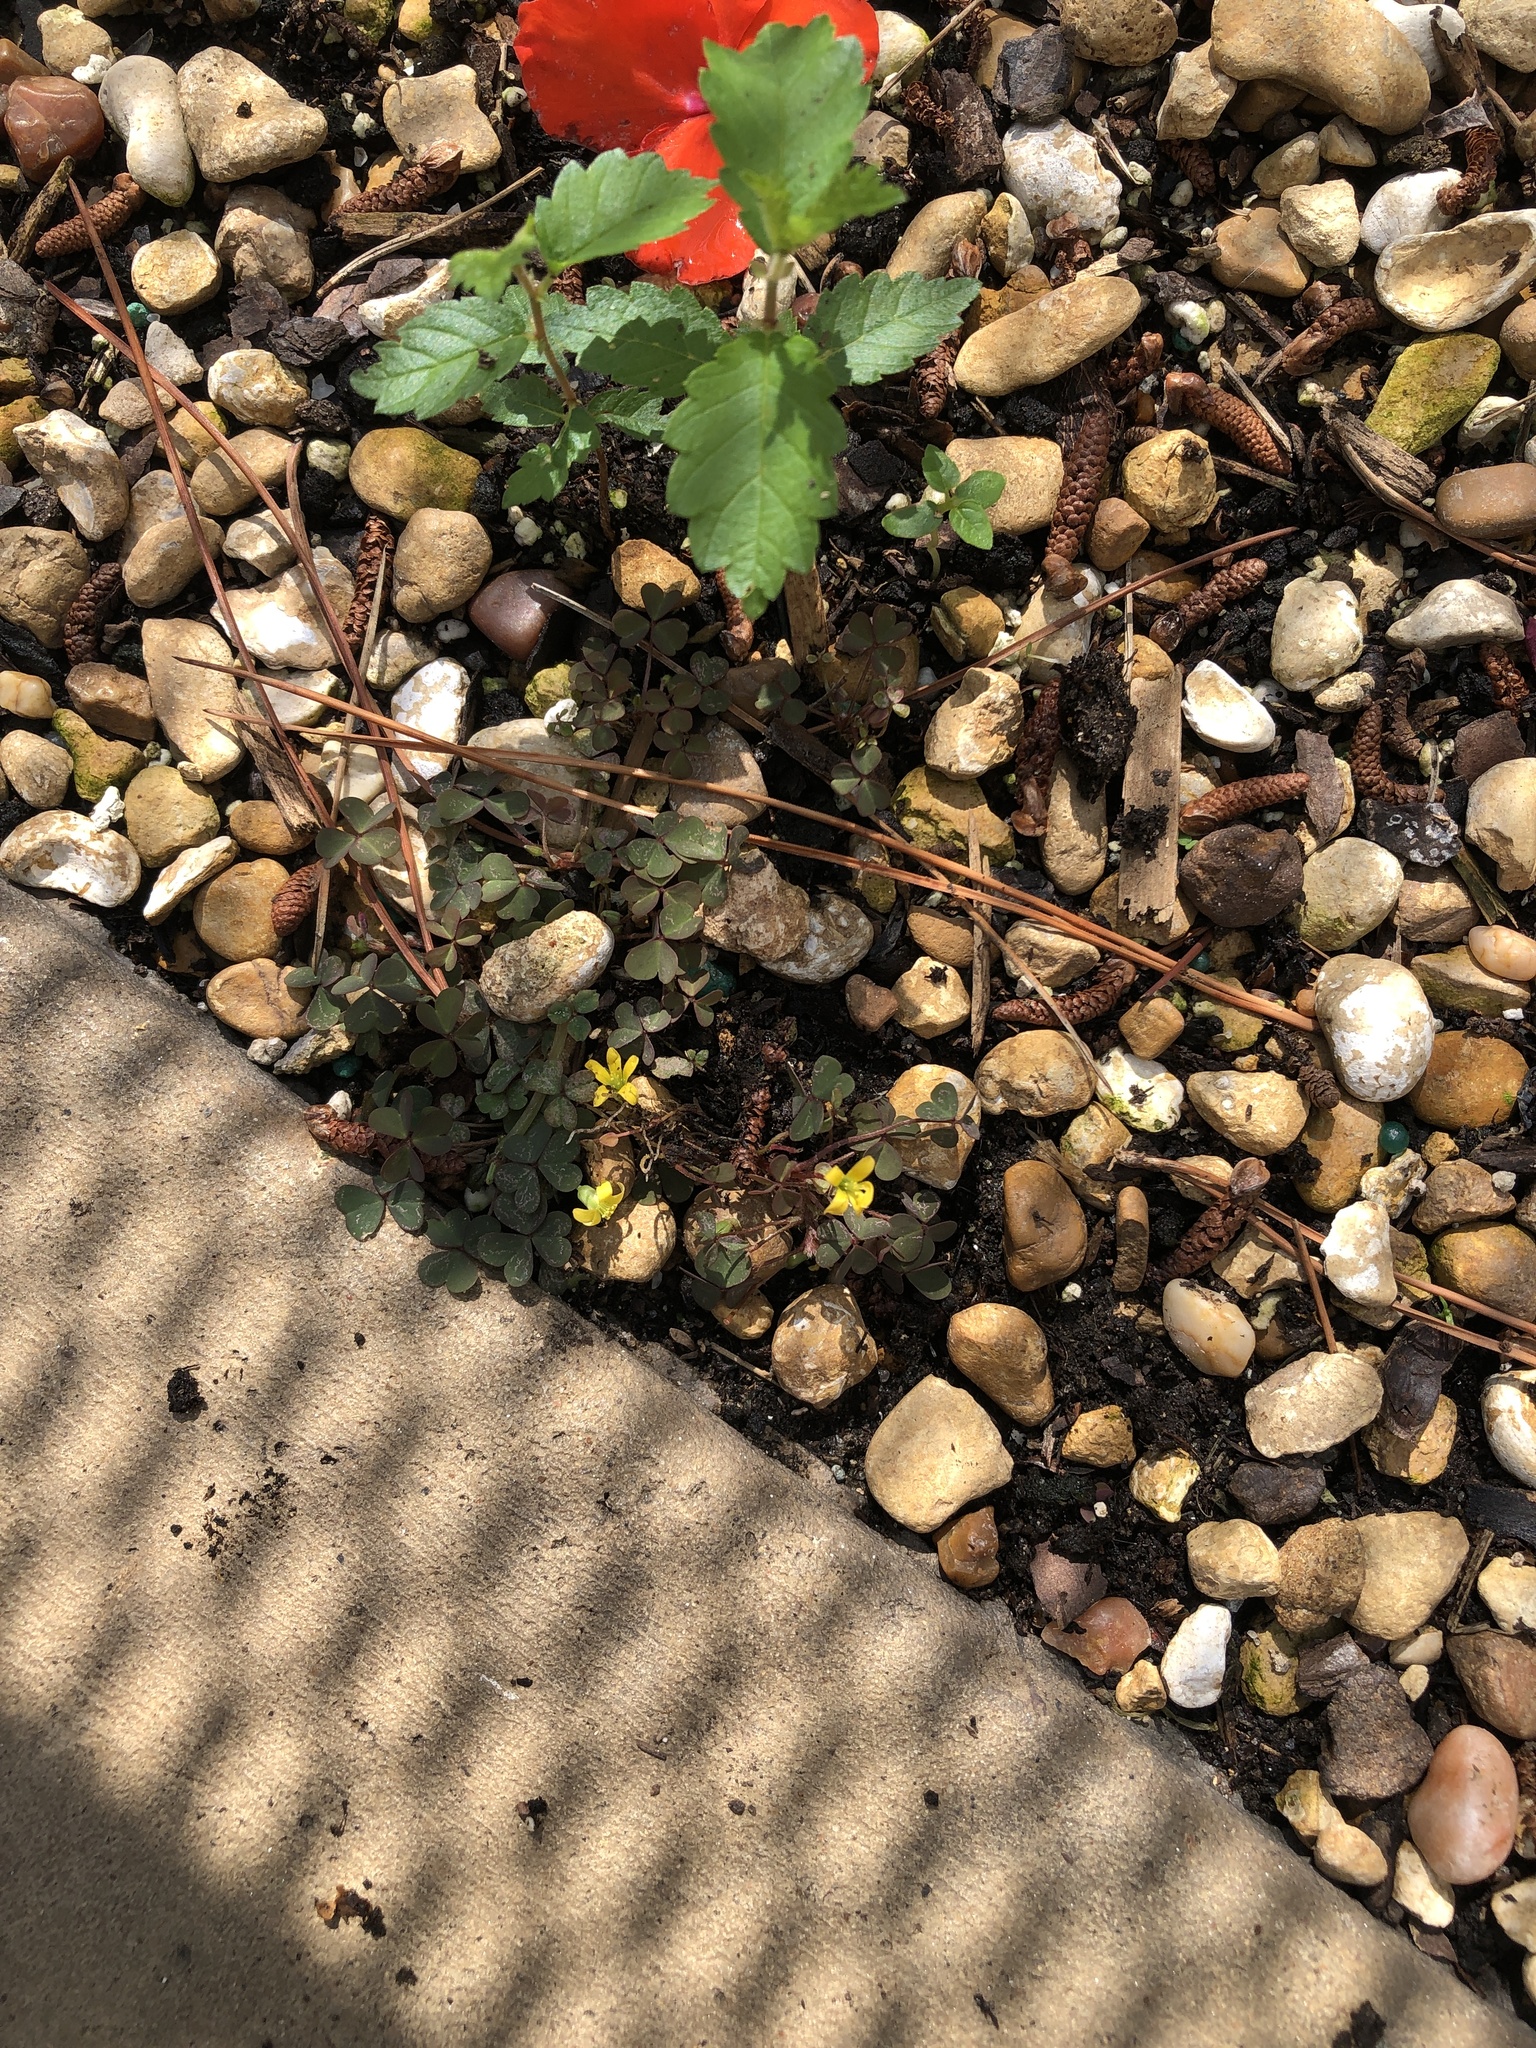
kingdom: Plantae
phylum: Tracheophyta
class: Magnoliopsida
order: Oxalidales
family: Oxalidaceae
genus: Oxalis
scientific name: Oxalis corniculata
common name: Procumbent yellow-sorrel
